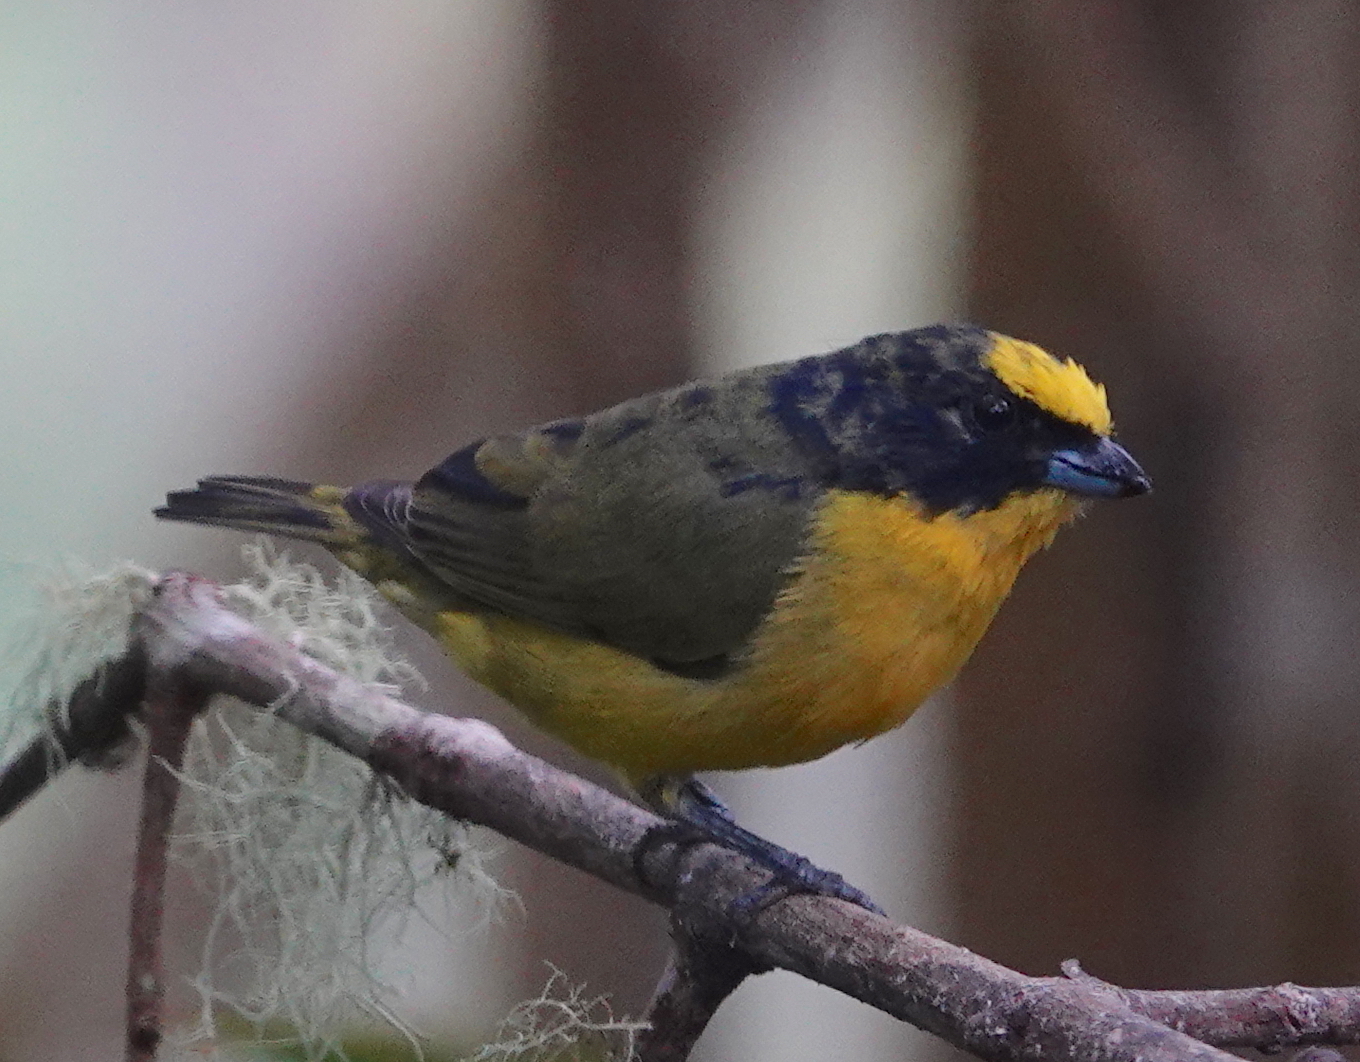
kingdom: Animalia
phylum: Chordata
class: Aves
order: Passeriformes
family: Fringillidae
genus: Euphonia
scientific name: Euphonia laniirostris
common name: Thick-billed euphonia
